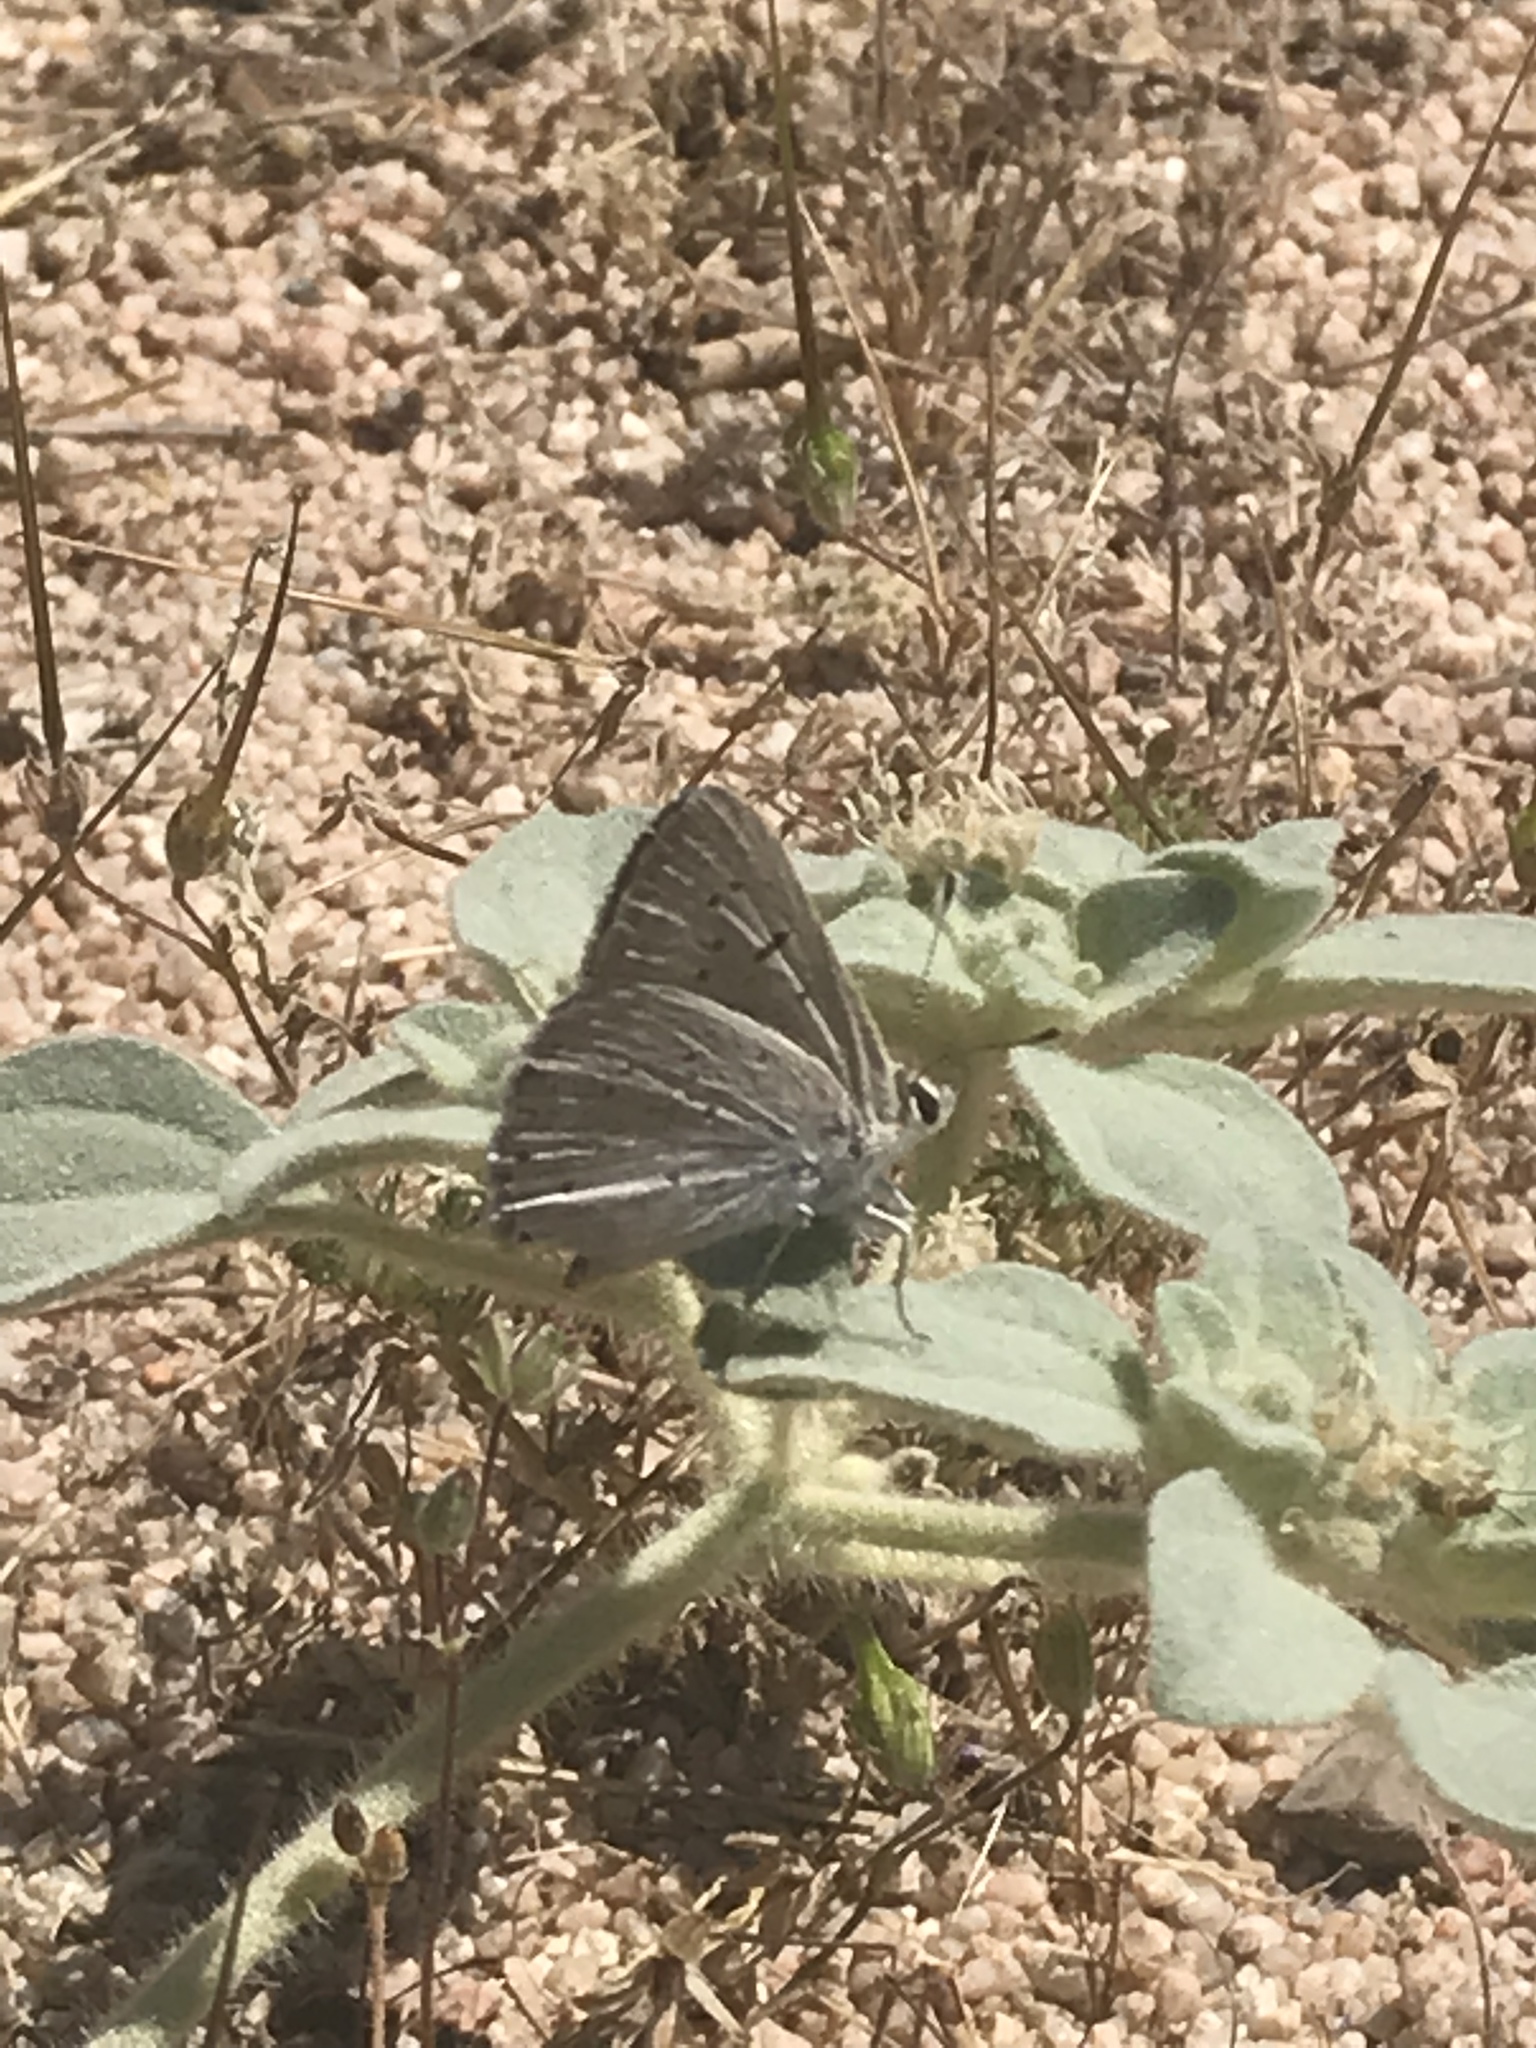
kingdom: Animalia
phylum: Arthropoda
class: Insecta
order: Lepidoptera
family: Lycaenidae
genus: Tharsalea
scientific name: Tharsalea xanthoides
